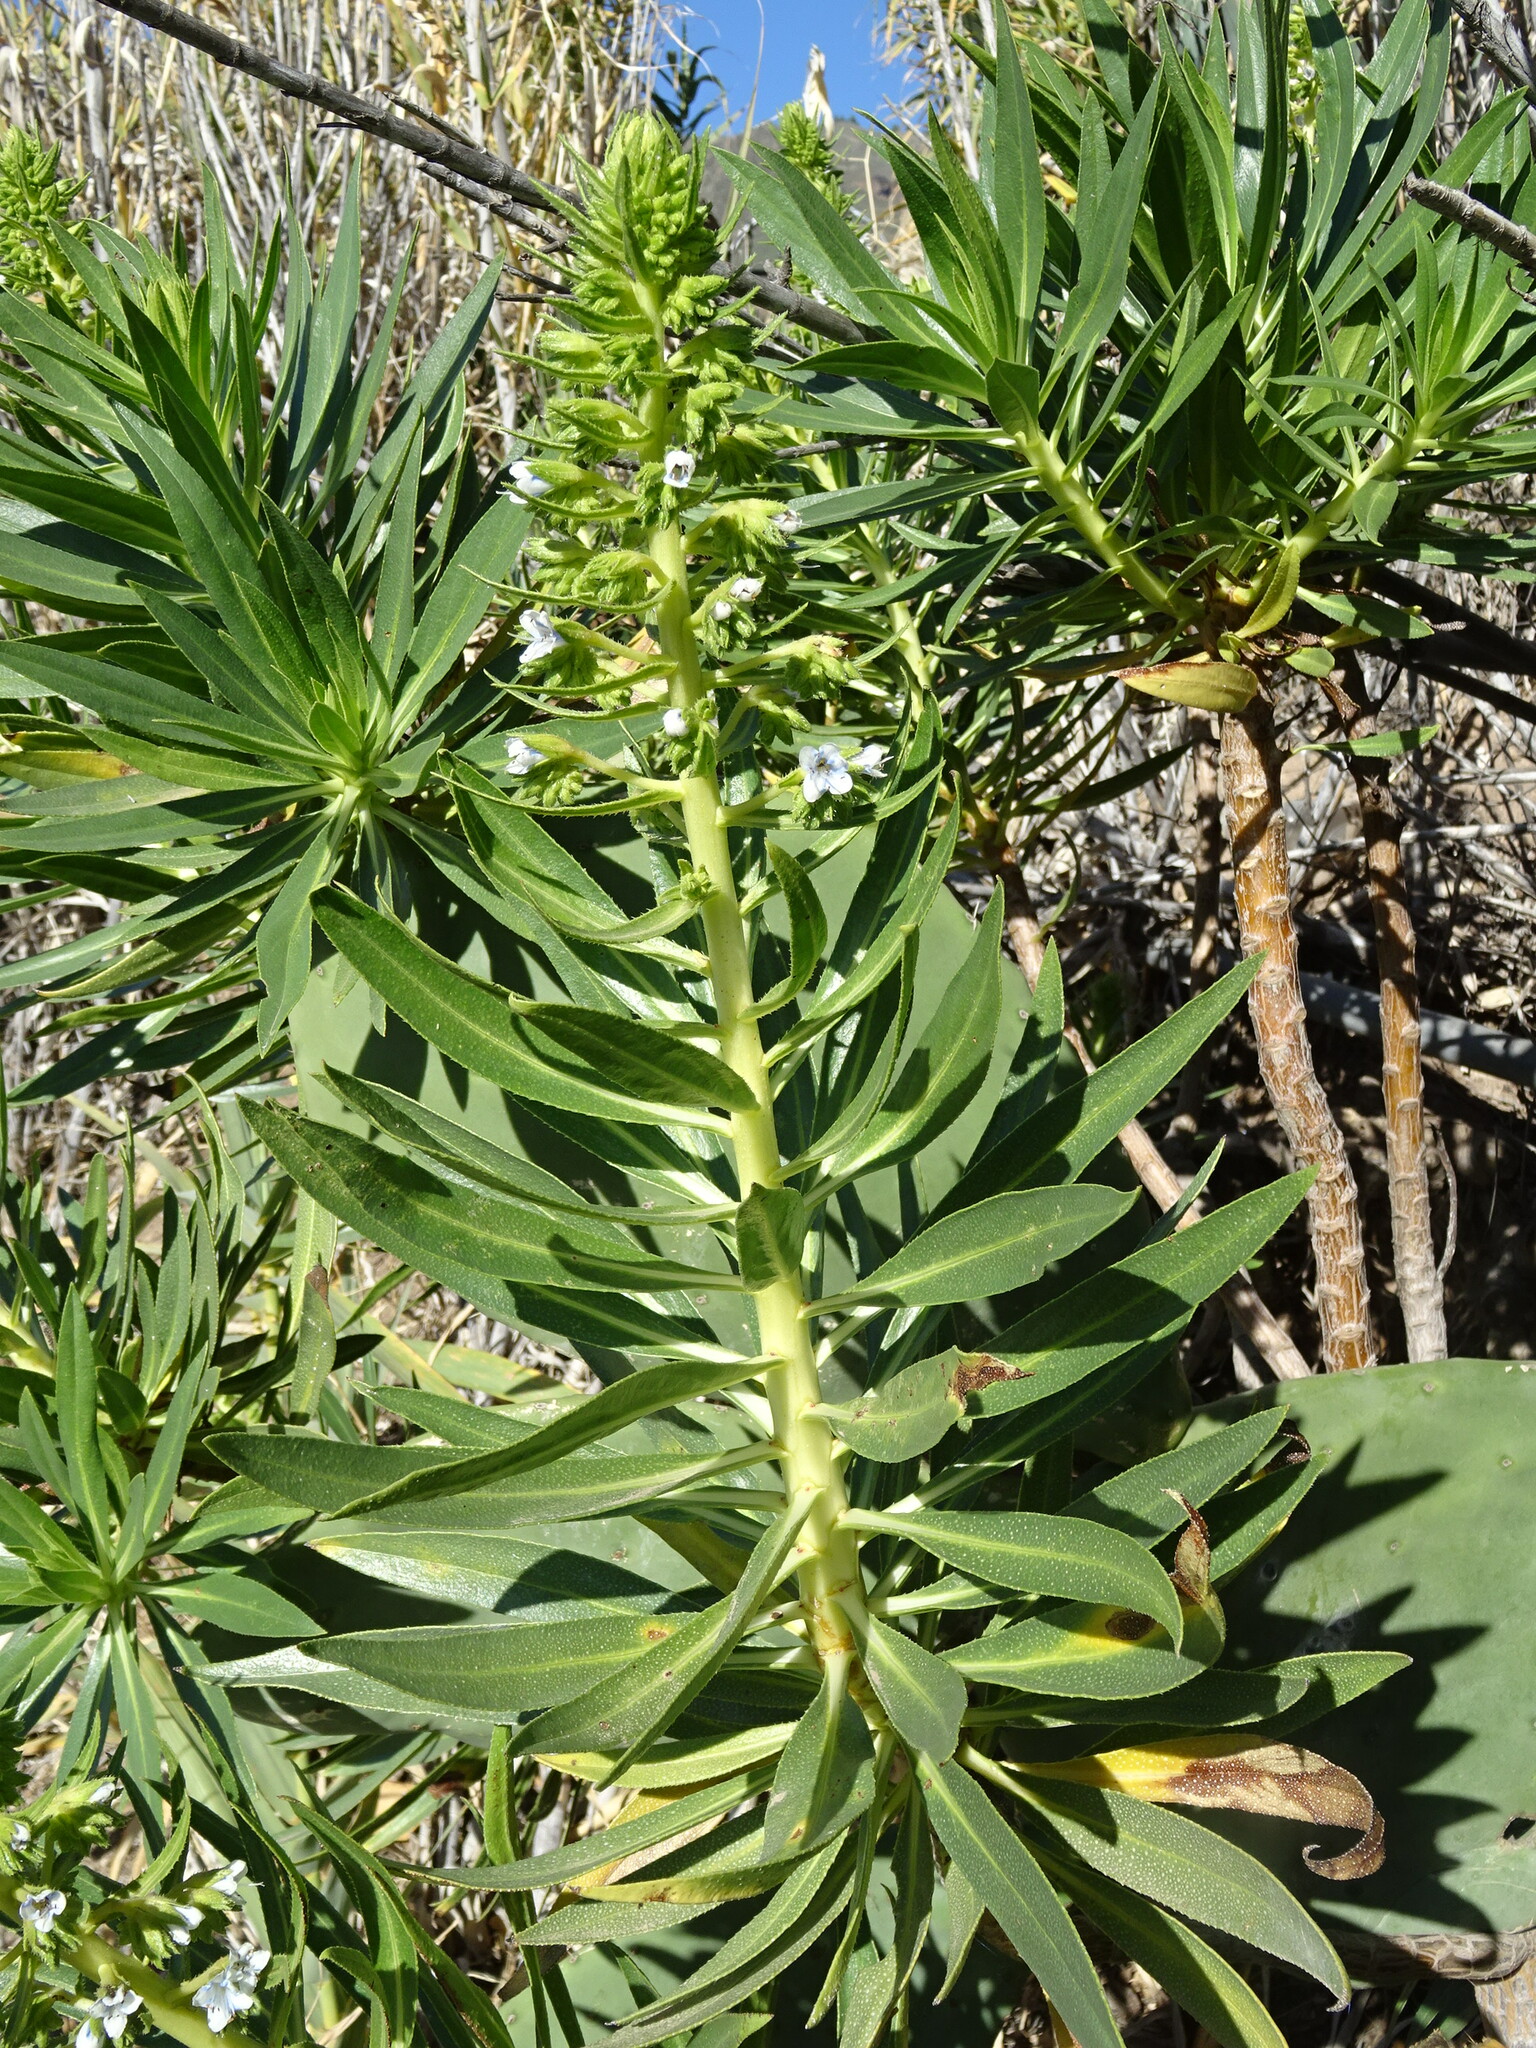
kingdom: Plantae
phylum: Tracheophyta
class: Magnoliopsida
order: Boraginales
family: Boraginaceae
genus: Echium
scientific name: Echium decaisnei
